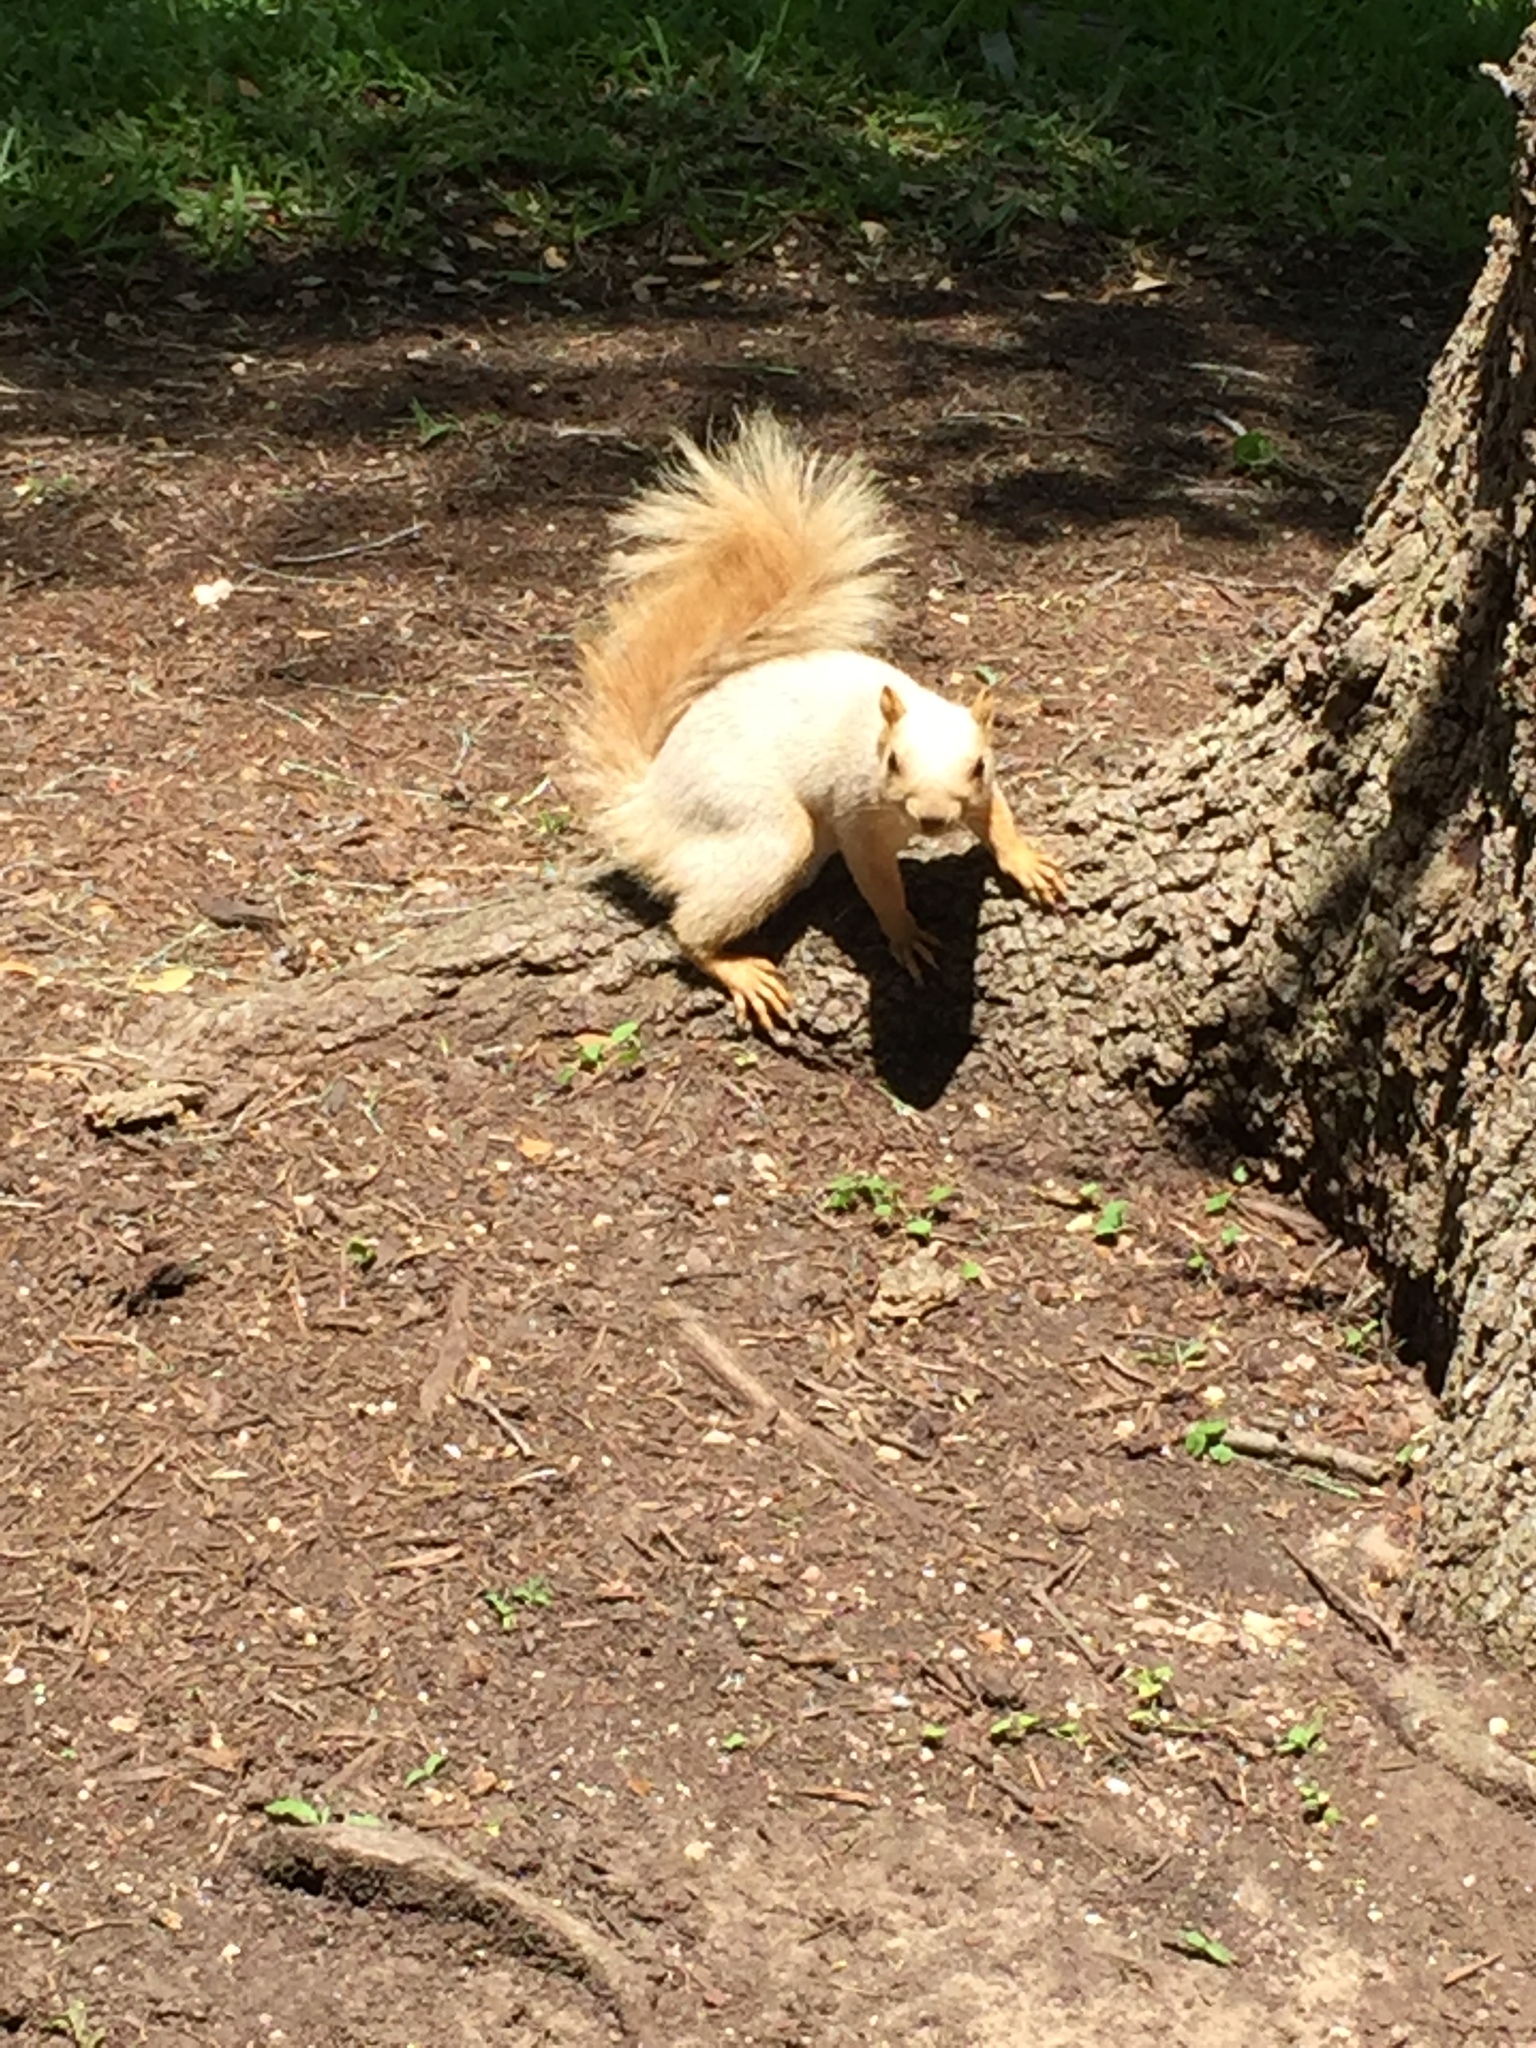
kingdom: Animalia
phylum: Chordata
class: Mammalia
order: Rodentia
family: Sciuridae
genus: Sciurus
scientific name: Sciurus niger
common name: Fox squirrel
